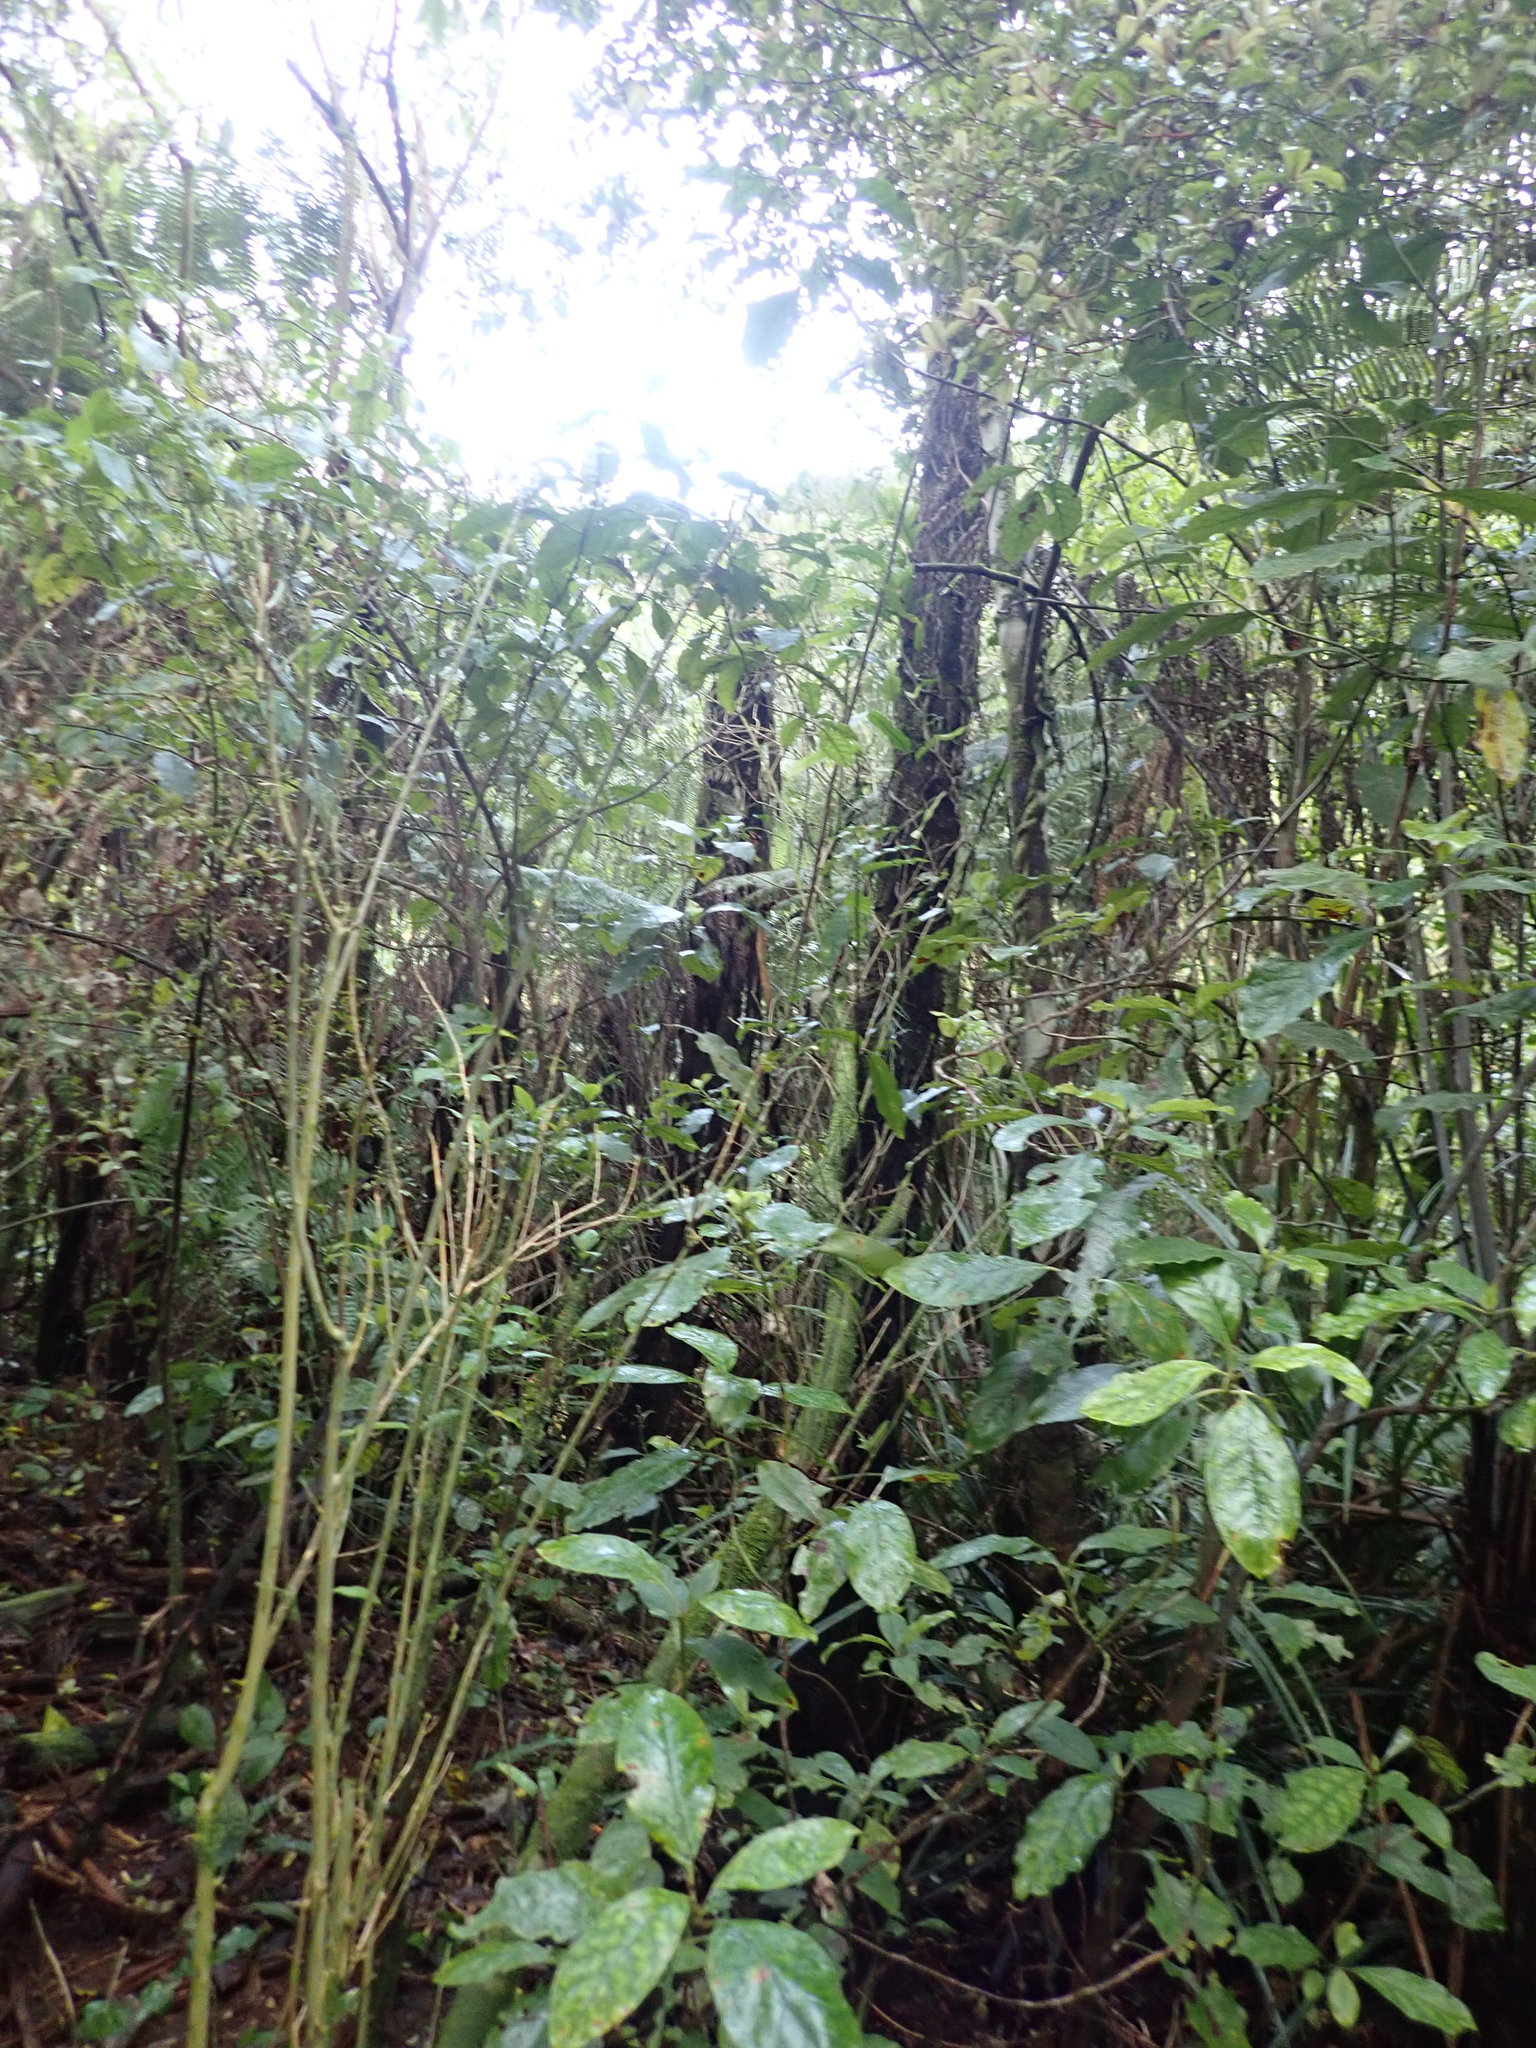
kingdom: Plantae
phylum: Tracheophyta
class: Magnoliopsida
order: Gentianales
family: Rubiaceae
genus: Coprosma
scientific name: Coprosma autumnalis
